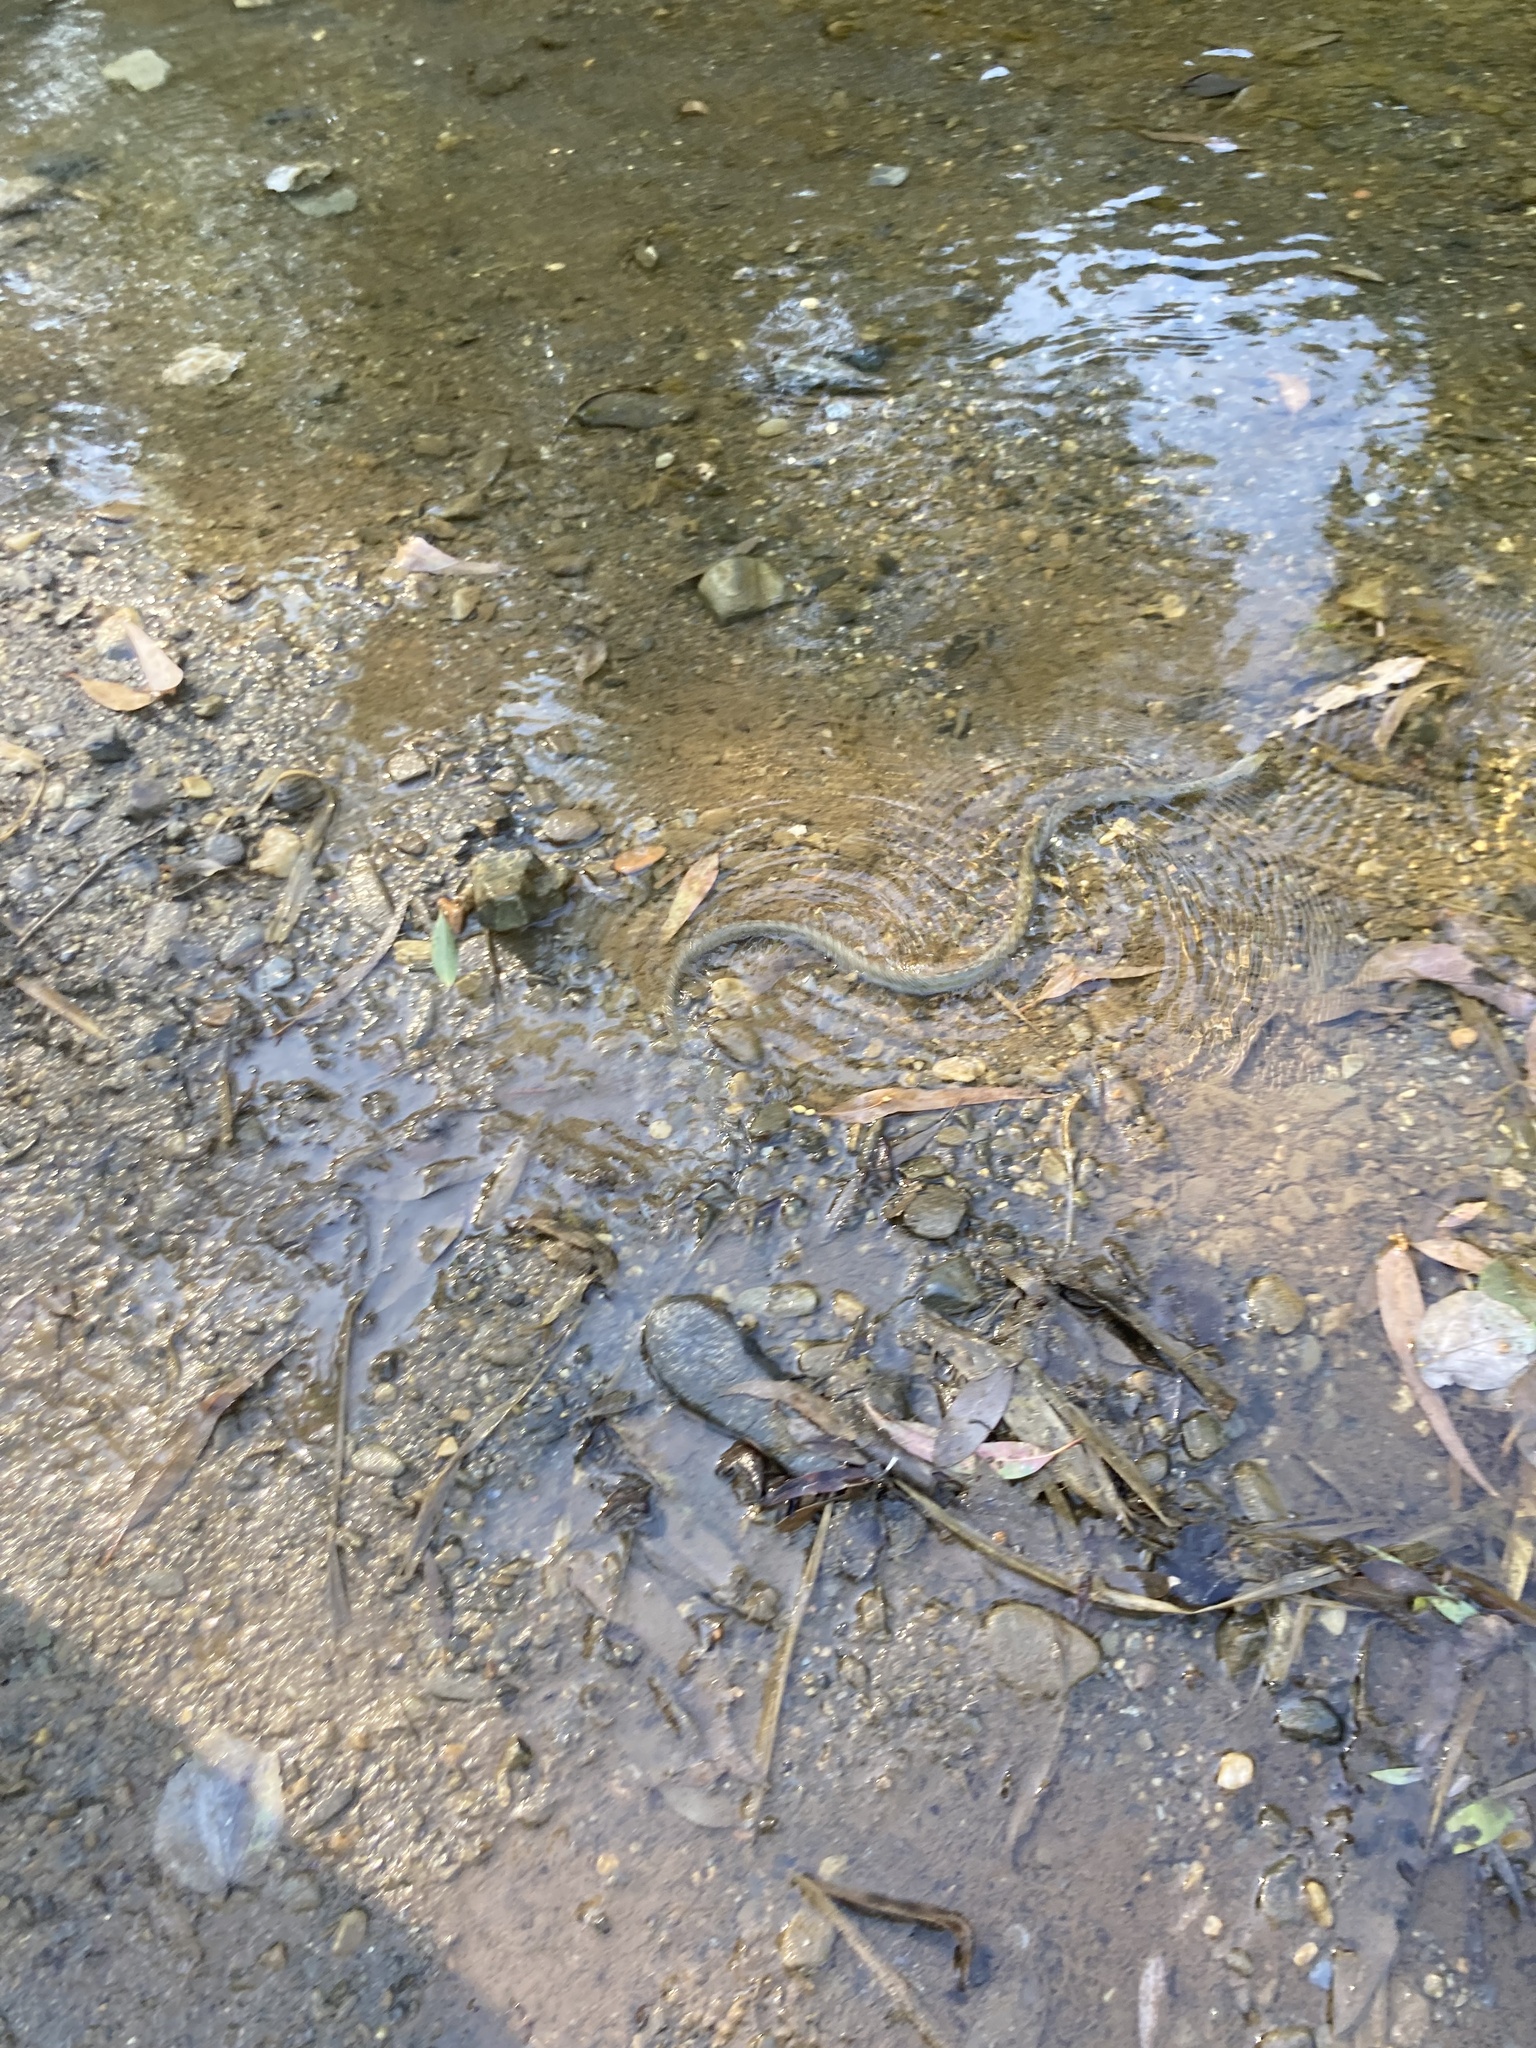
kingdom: Animalia
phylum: Chordata
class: Squamata
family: Colubridae
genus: Natrix
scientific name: Natrix maura
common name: Viperine water snake
